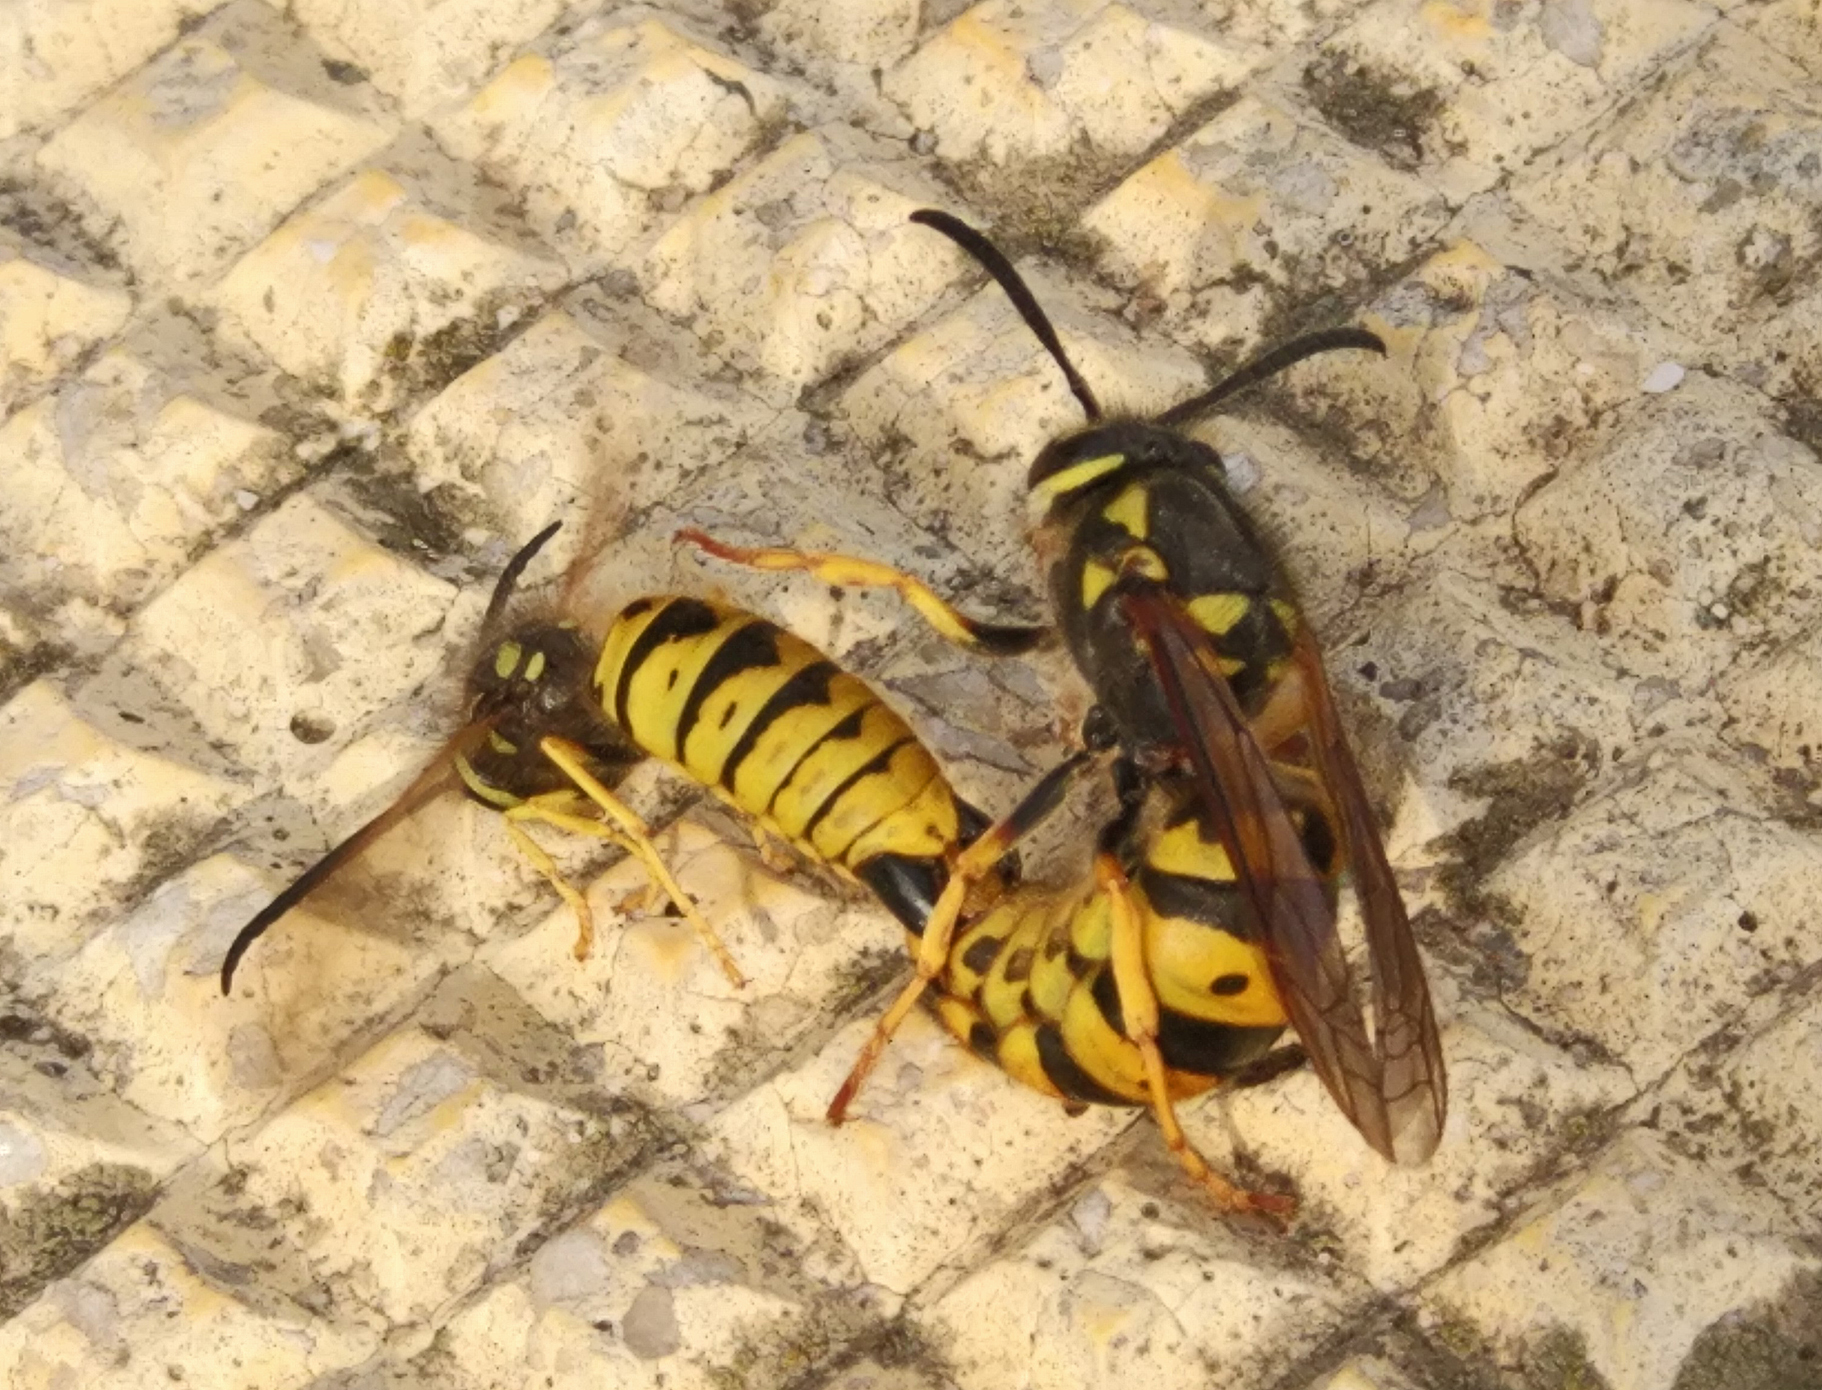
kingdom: Animalia
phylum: Arthropoda
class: Insecta
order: Hymenoptera
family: Vespidae
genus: Vespula
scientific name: Vespula germanica
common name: German wasp
